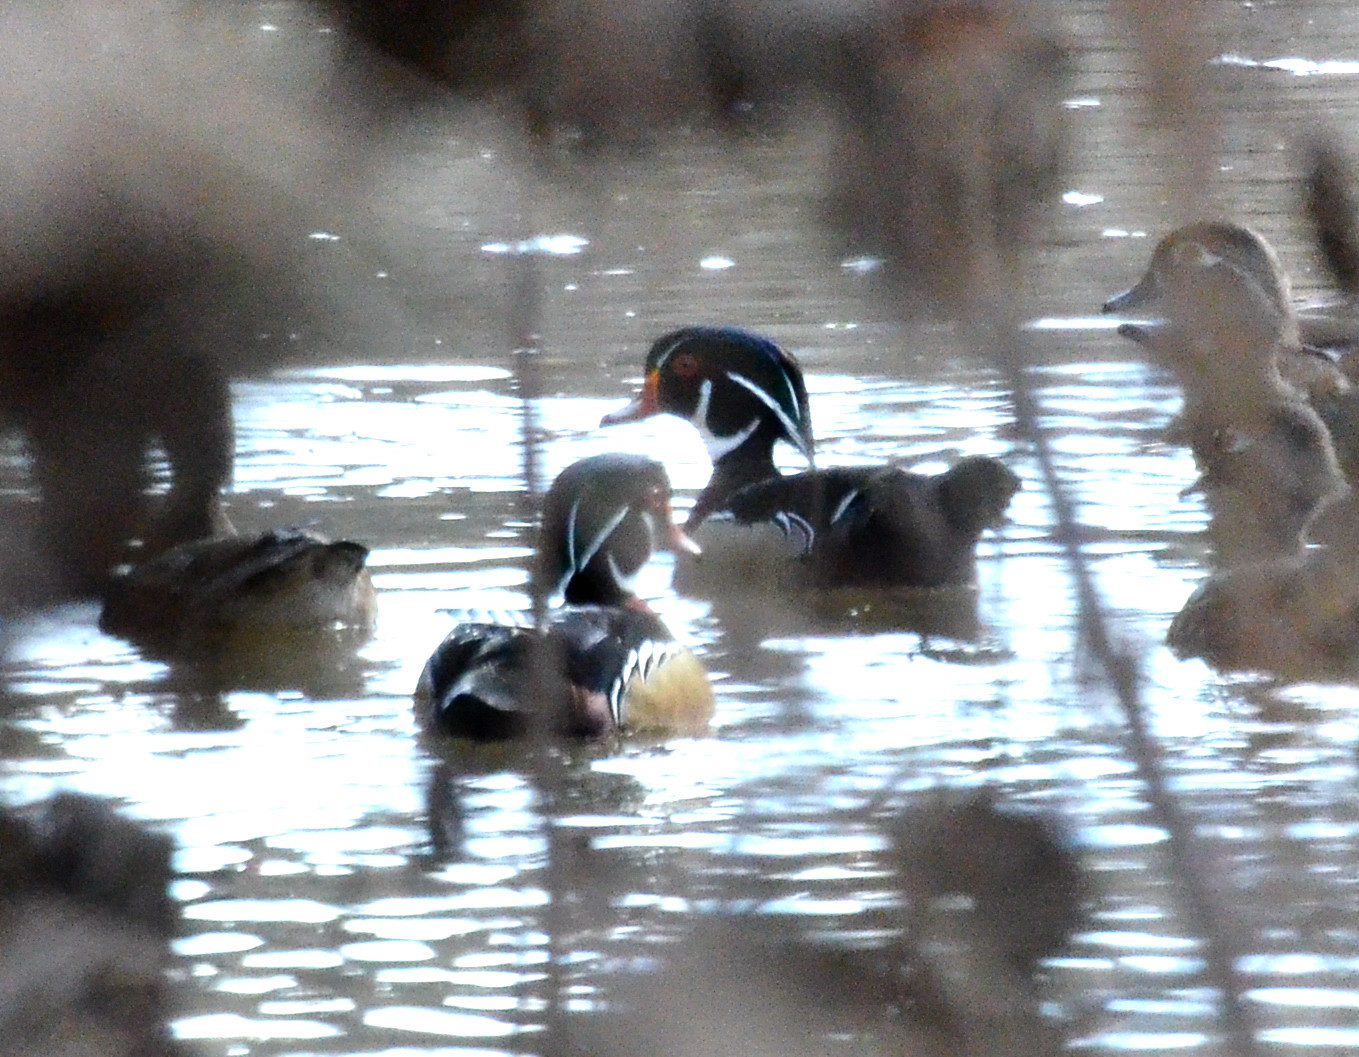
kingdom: Animalia
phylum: Chordata
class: Aves
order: Anseriformes
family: Anatidae
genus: Aix
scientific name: Aix sponsa
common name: Wood duck
